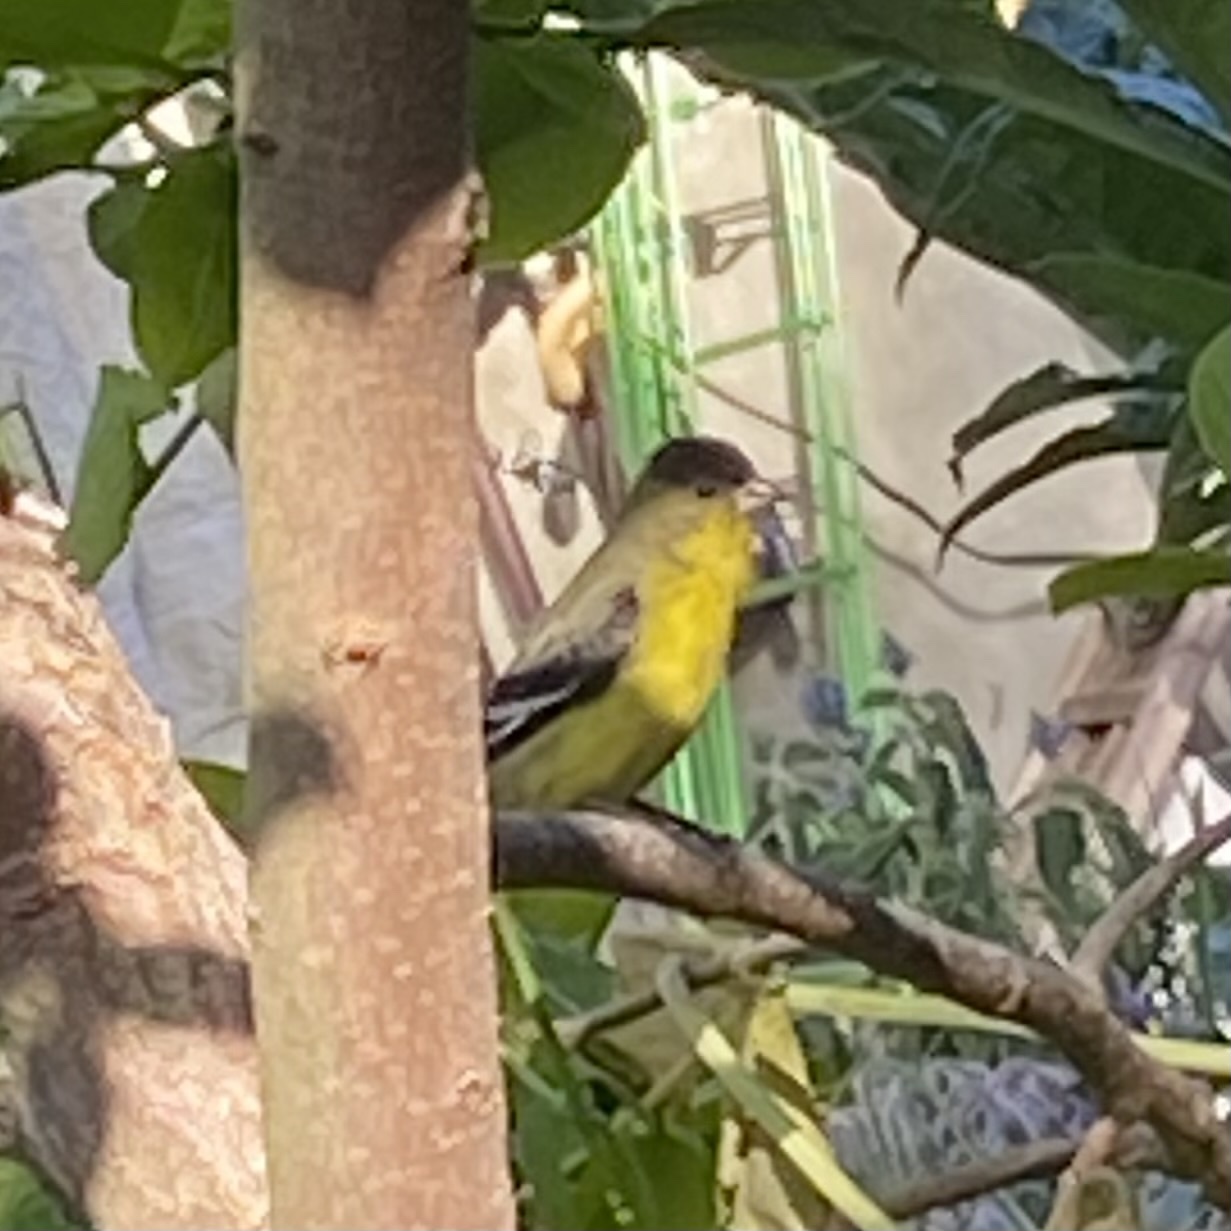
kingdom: Animalia
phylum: Chordata
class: Aves
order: Passeriformes
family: Fringillidae
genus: Spinus
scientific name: Spinus psaltria
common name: Lesser goldfinch
